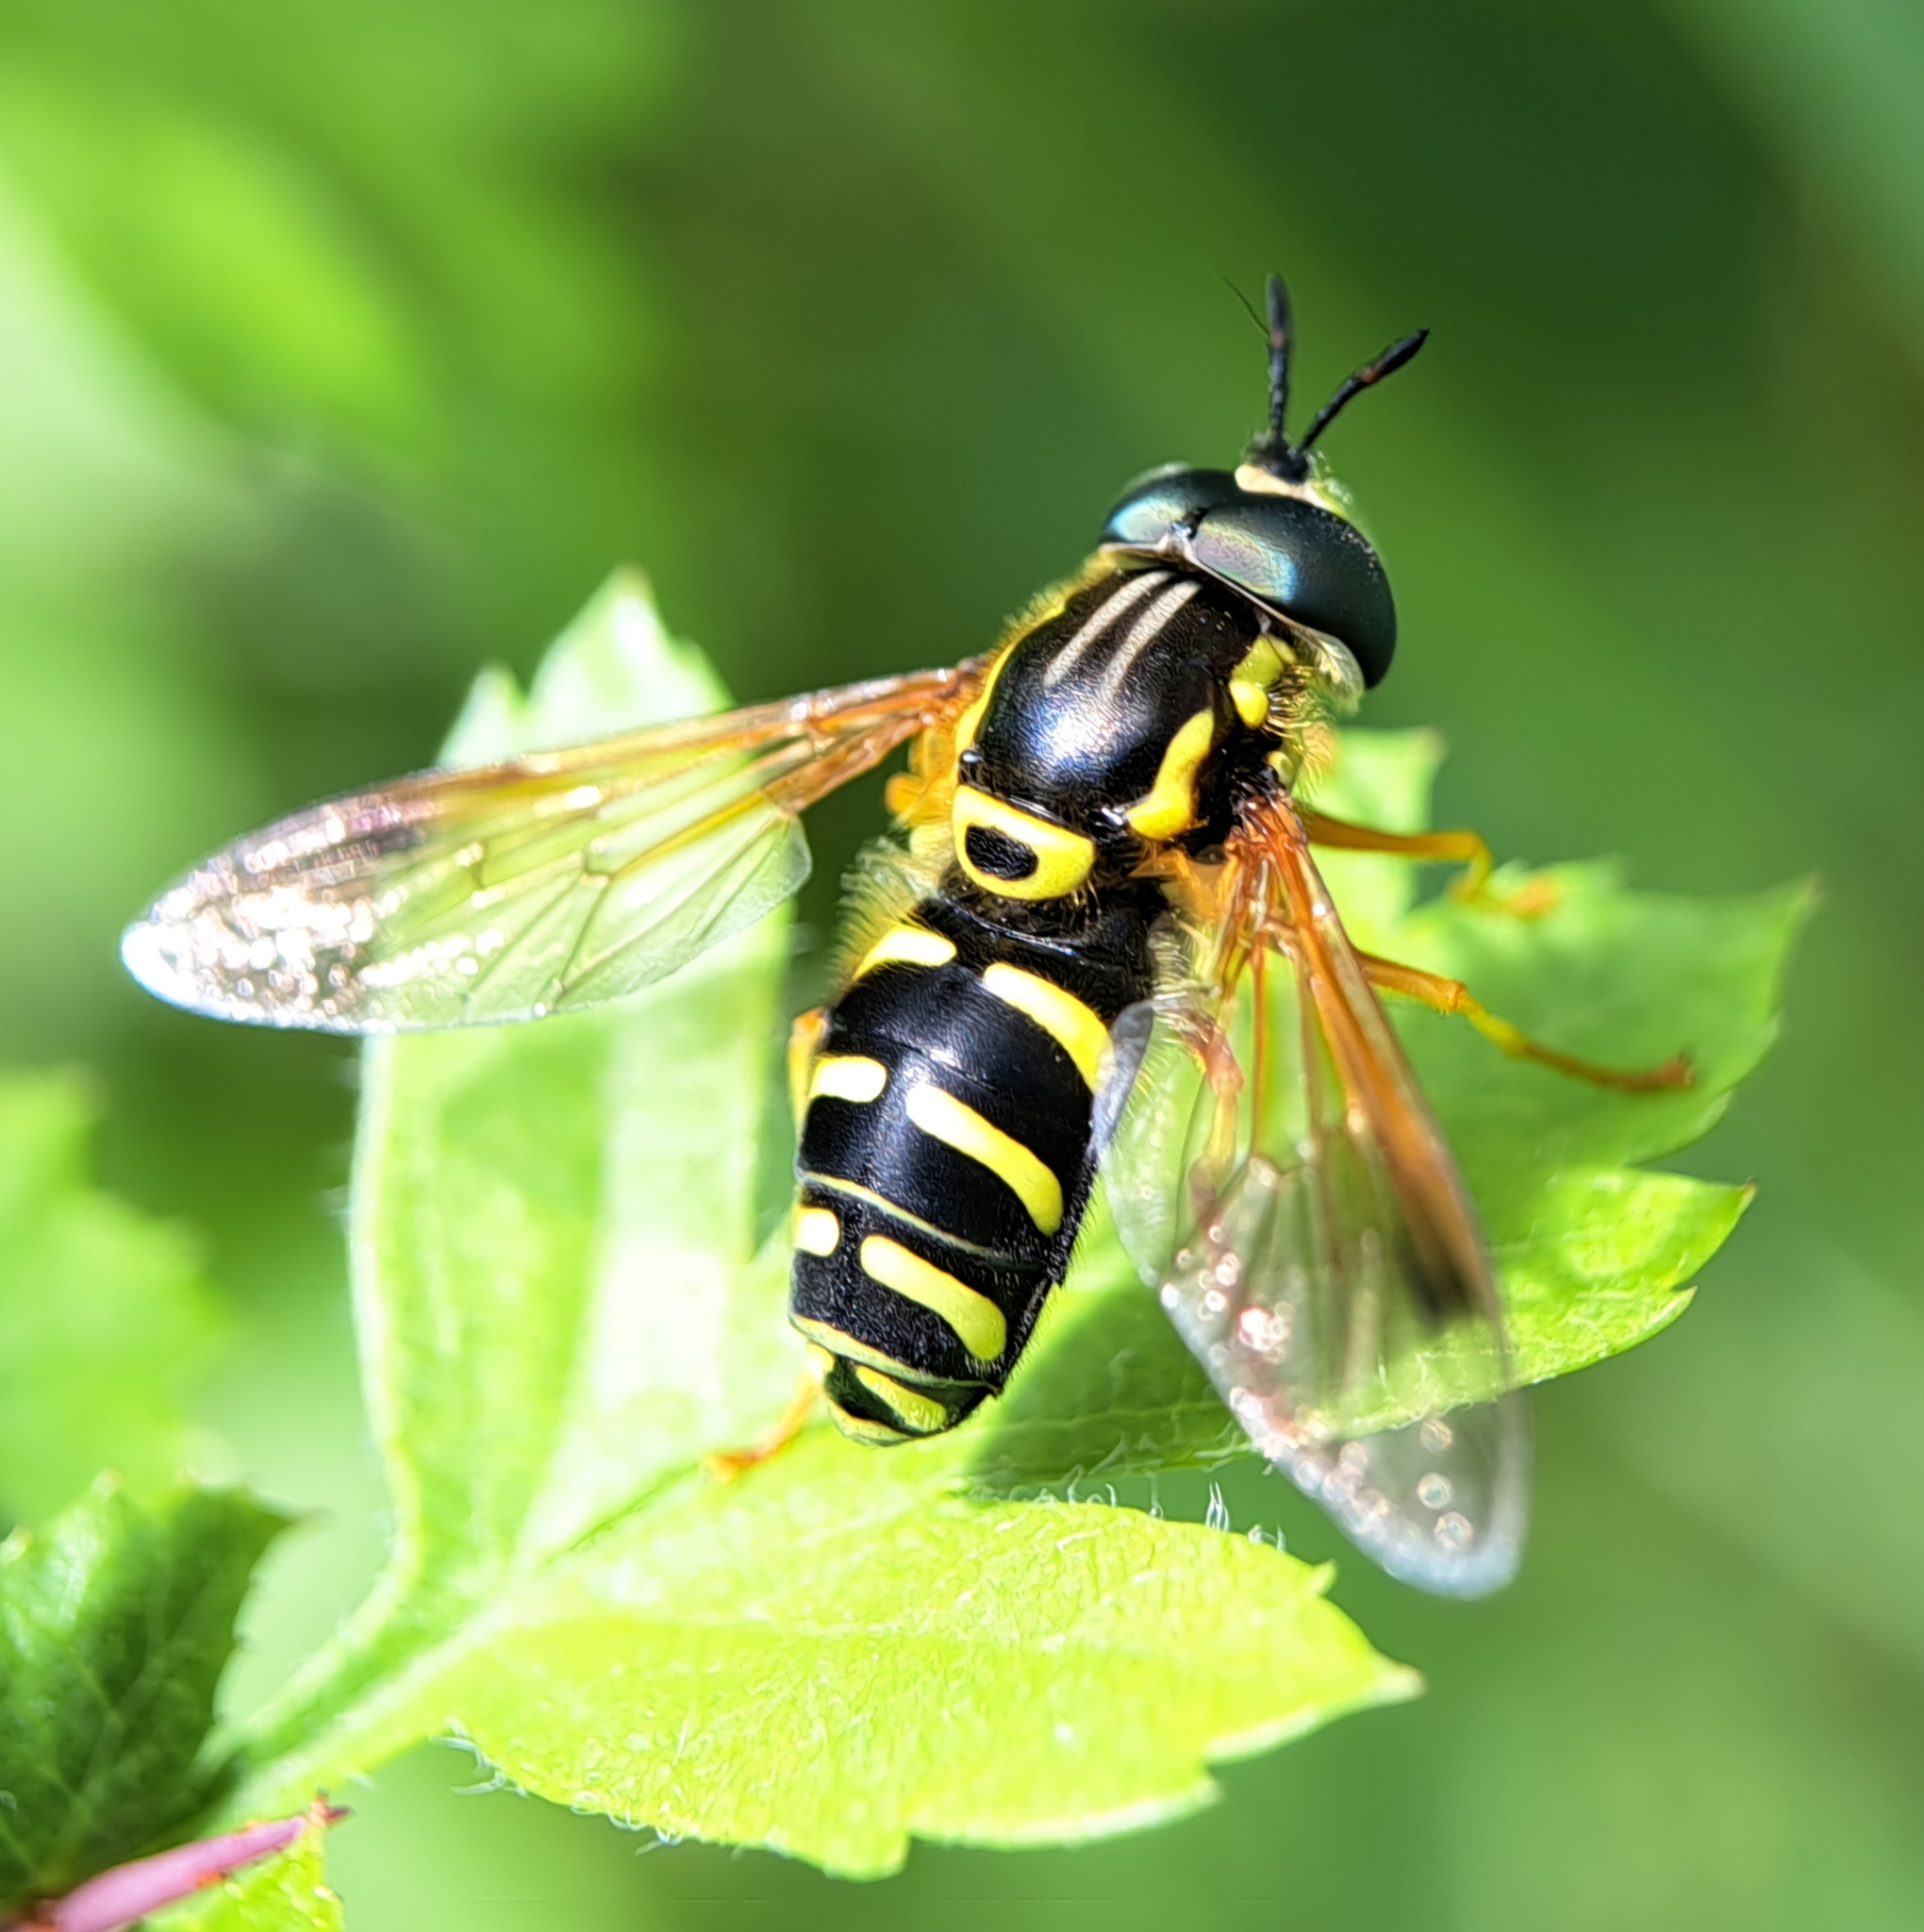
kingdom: Animalia
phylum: Arthropoda
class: Insecta
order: Diptera
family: Syrphidae
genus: Chrysotoxum
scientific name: Chrysotoxum festivum
